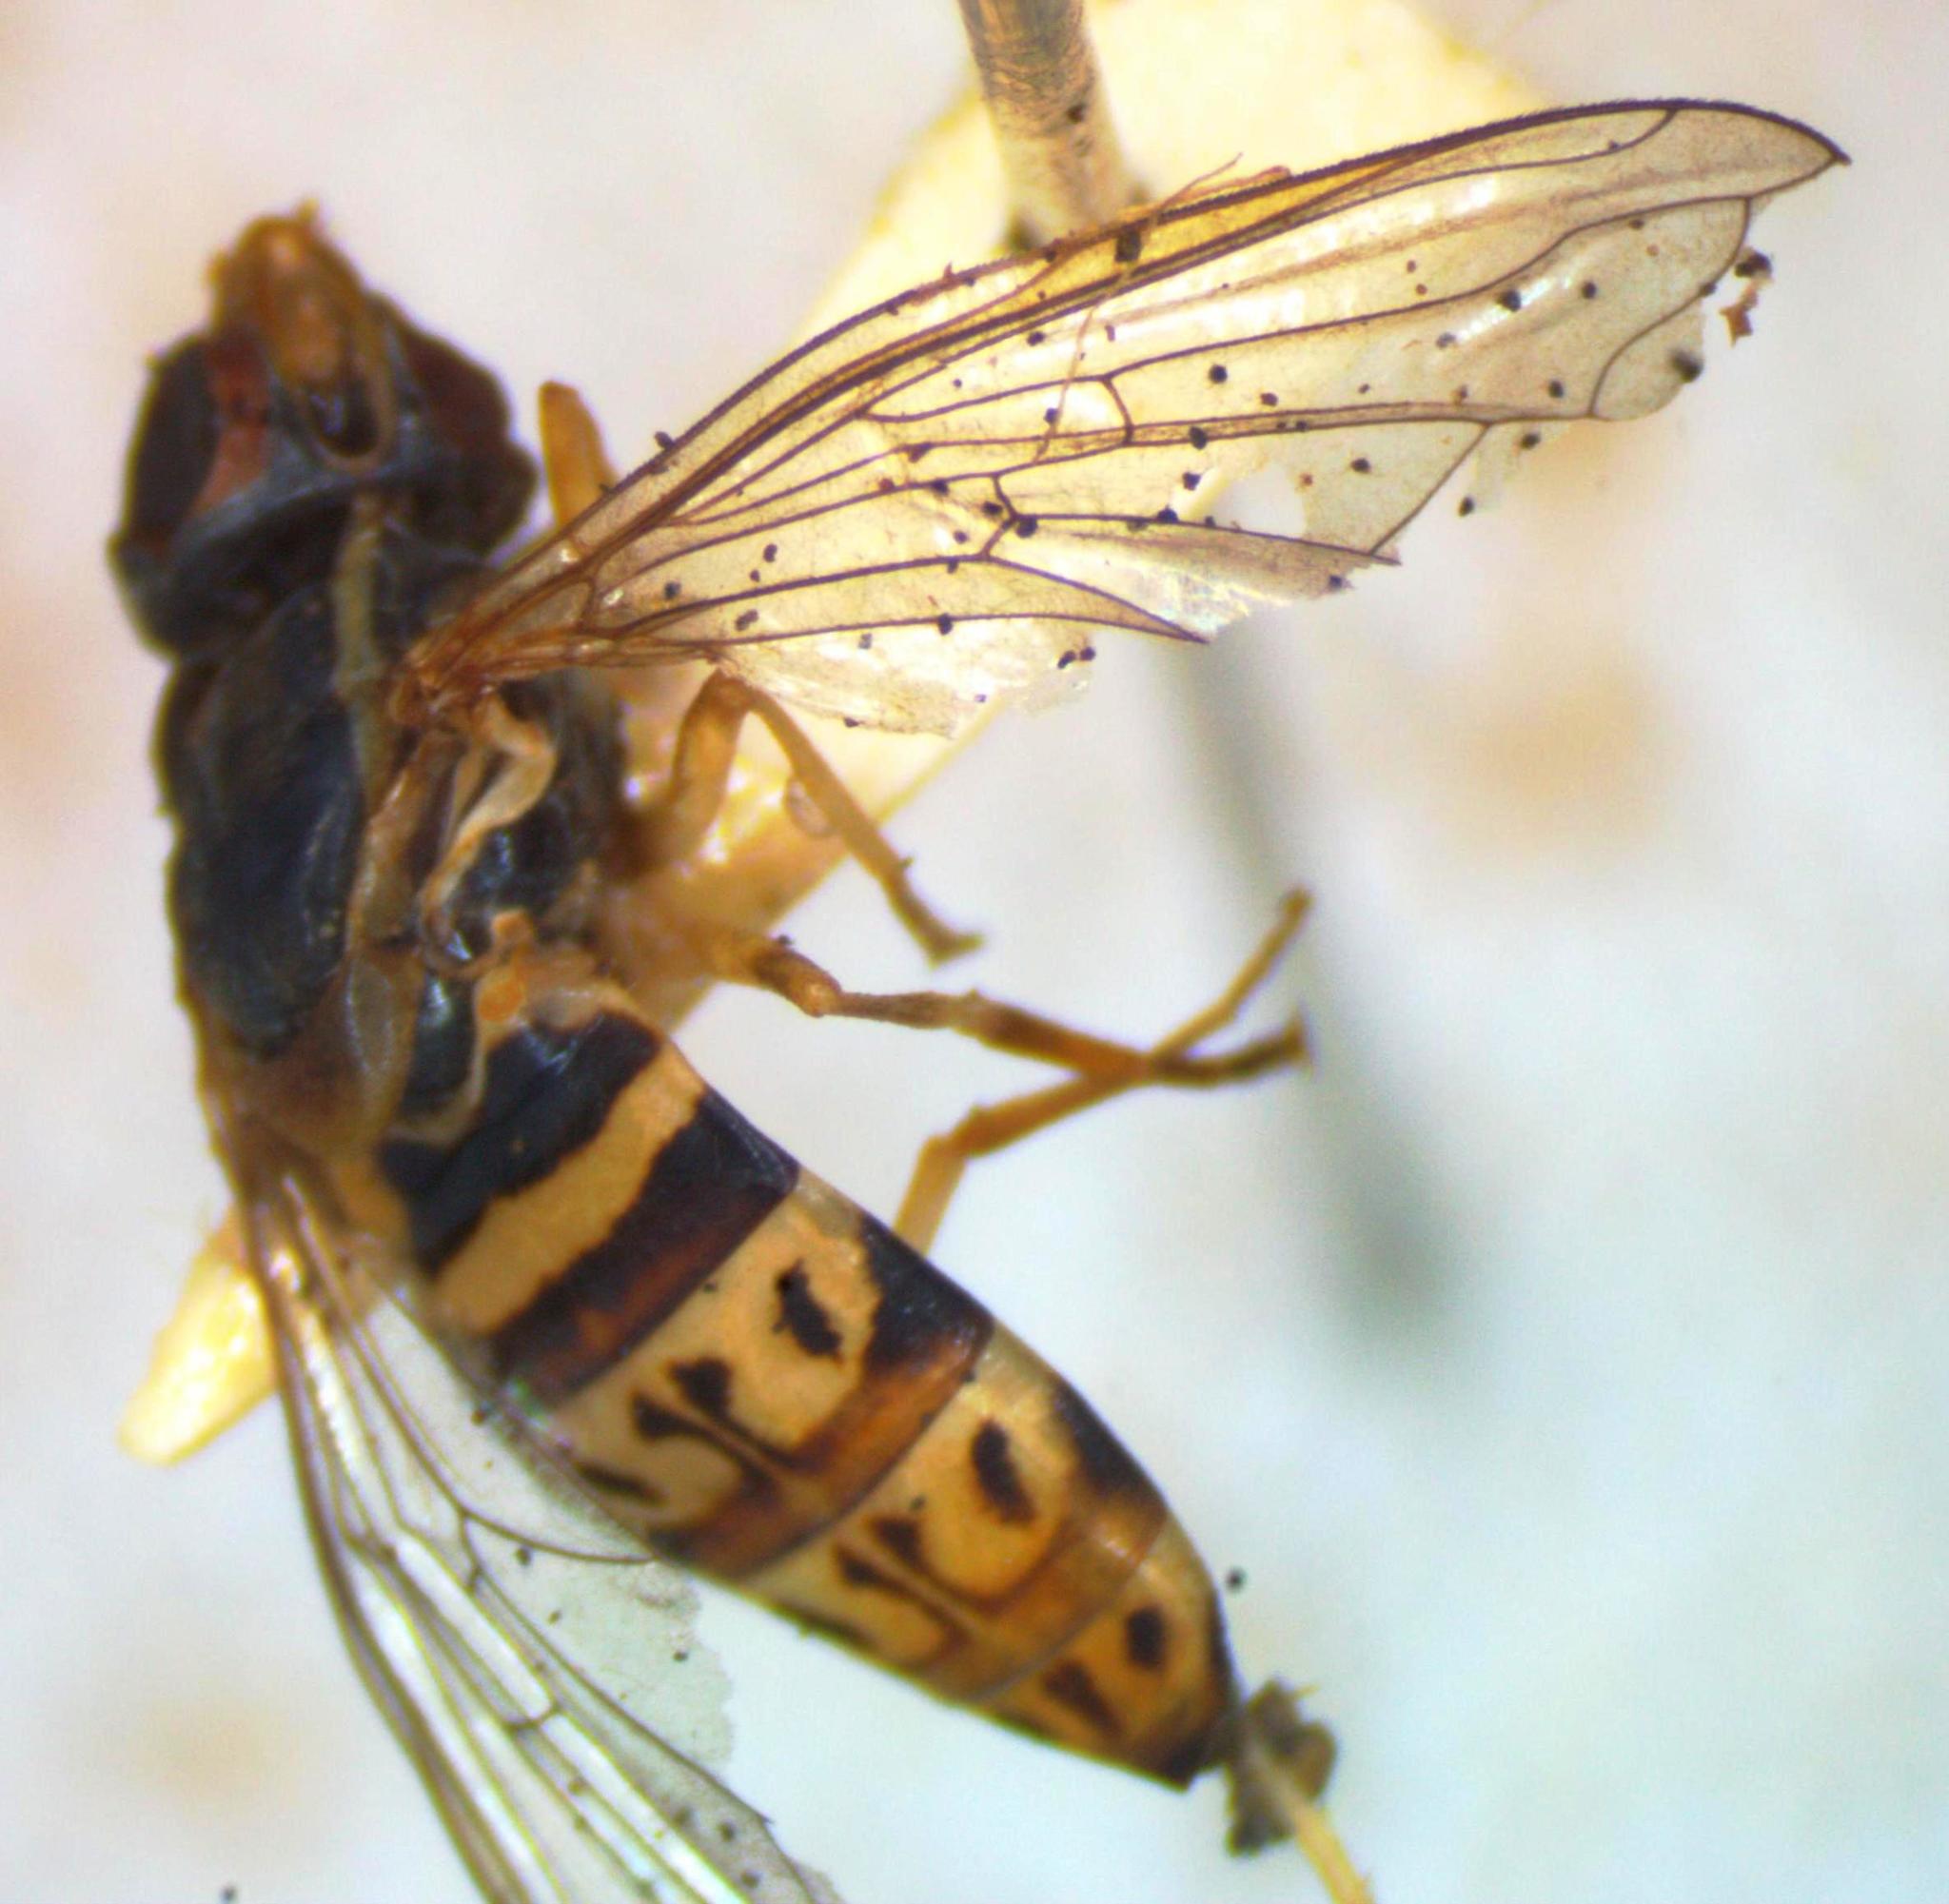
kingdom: Animalia
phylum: Arthropoda
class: Insecta
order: Diptera
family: Syrphidae
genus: Toxomerus
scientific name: Toxomerus pulchellus
